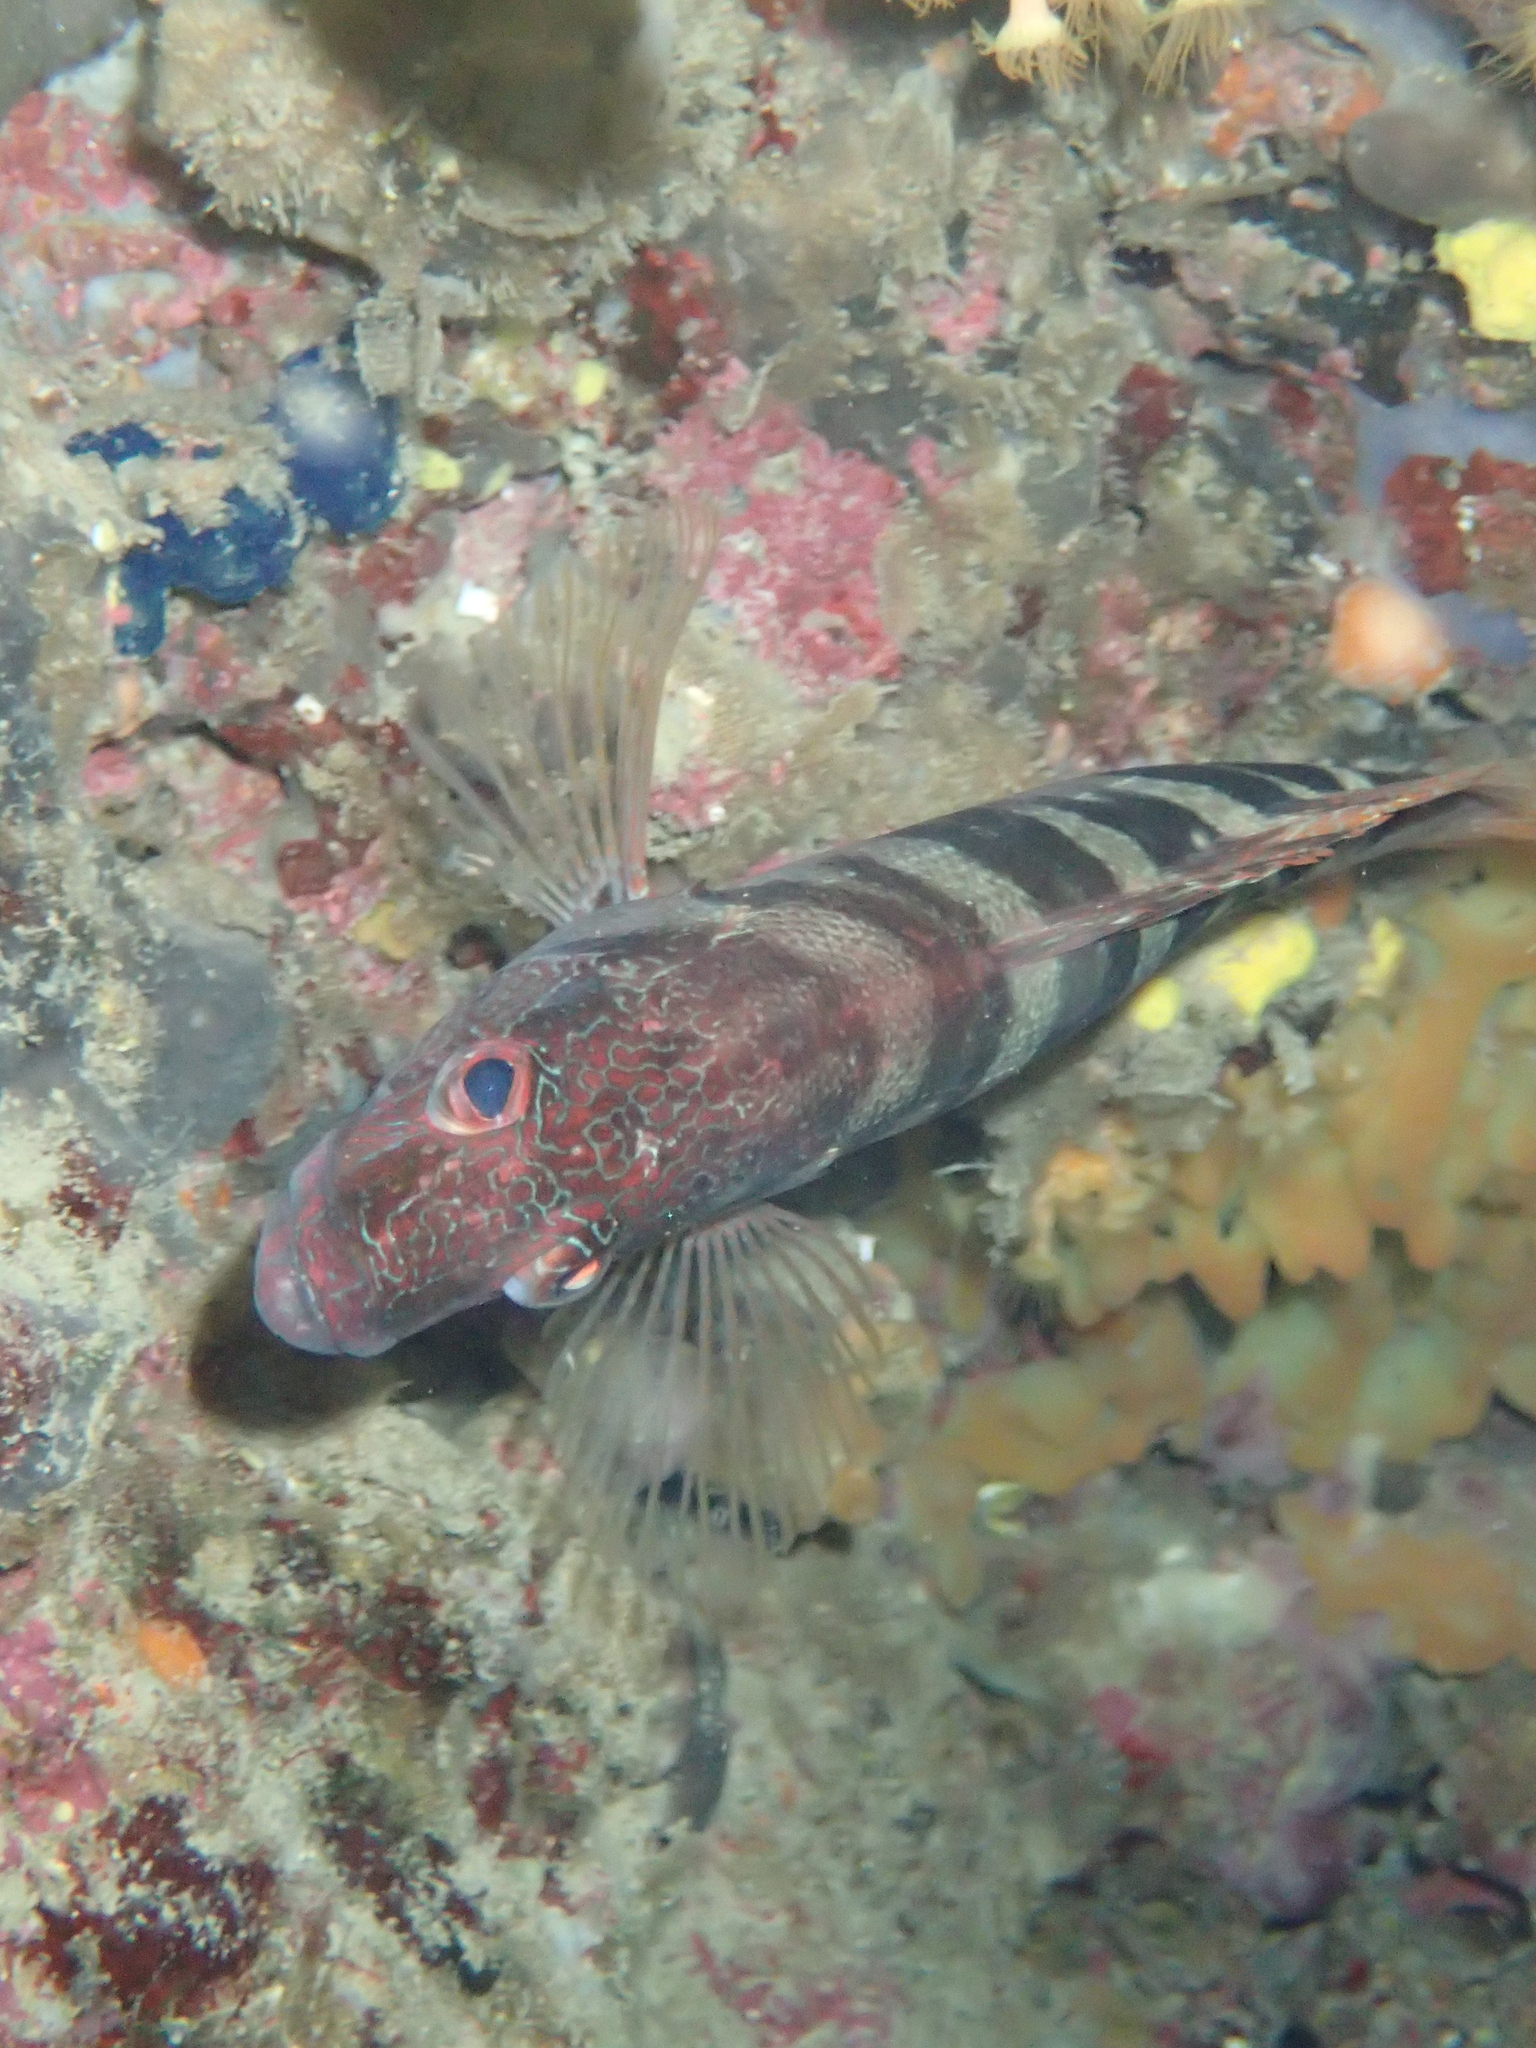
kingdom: Animalia
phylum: Chordata
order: Perciformes
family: Serranidae
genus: Serranus
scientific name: Serranus scriba
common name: Painted comber
